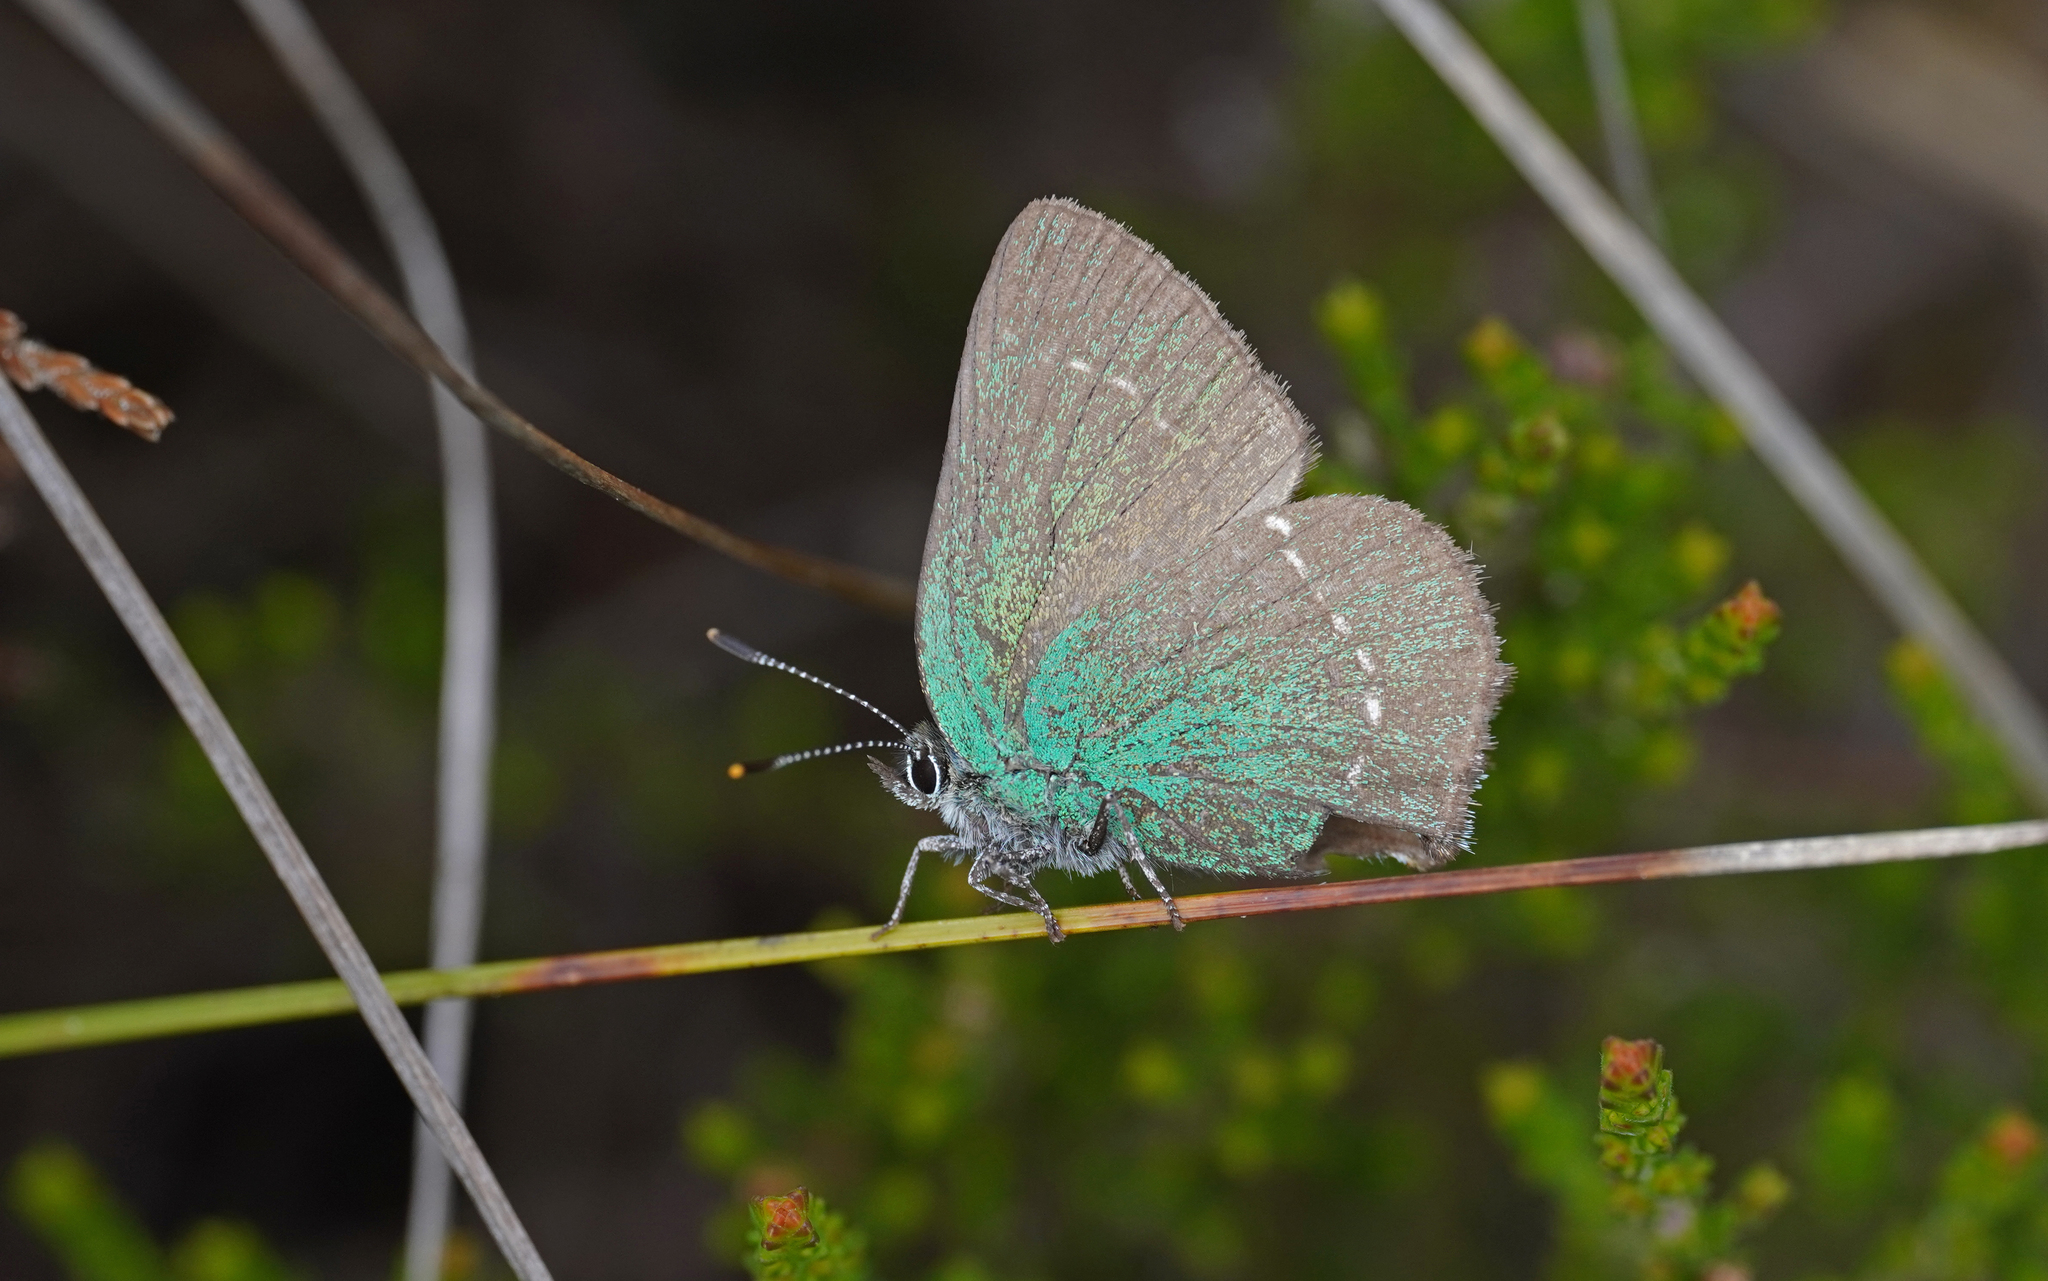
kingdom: Animalia
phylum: Arthropoda
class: Insecta
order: Lepidoptera
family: Lycaenidae
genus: Callophrys
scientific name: Callophrys rubi
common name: Green hairstreak
